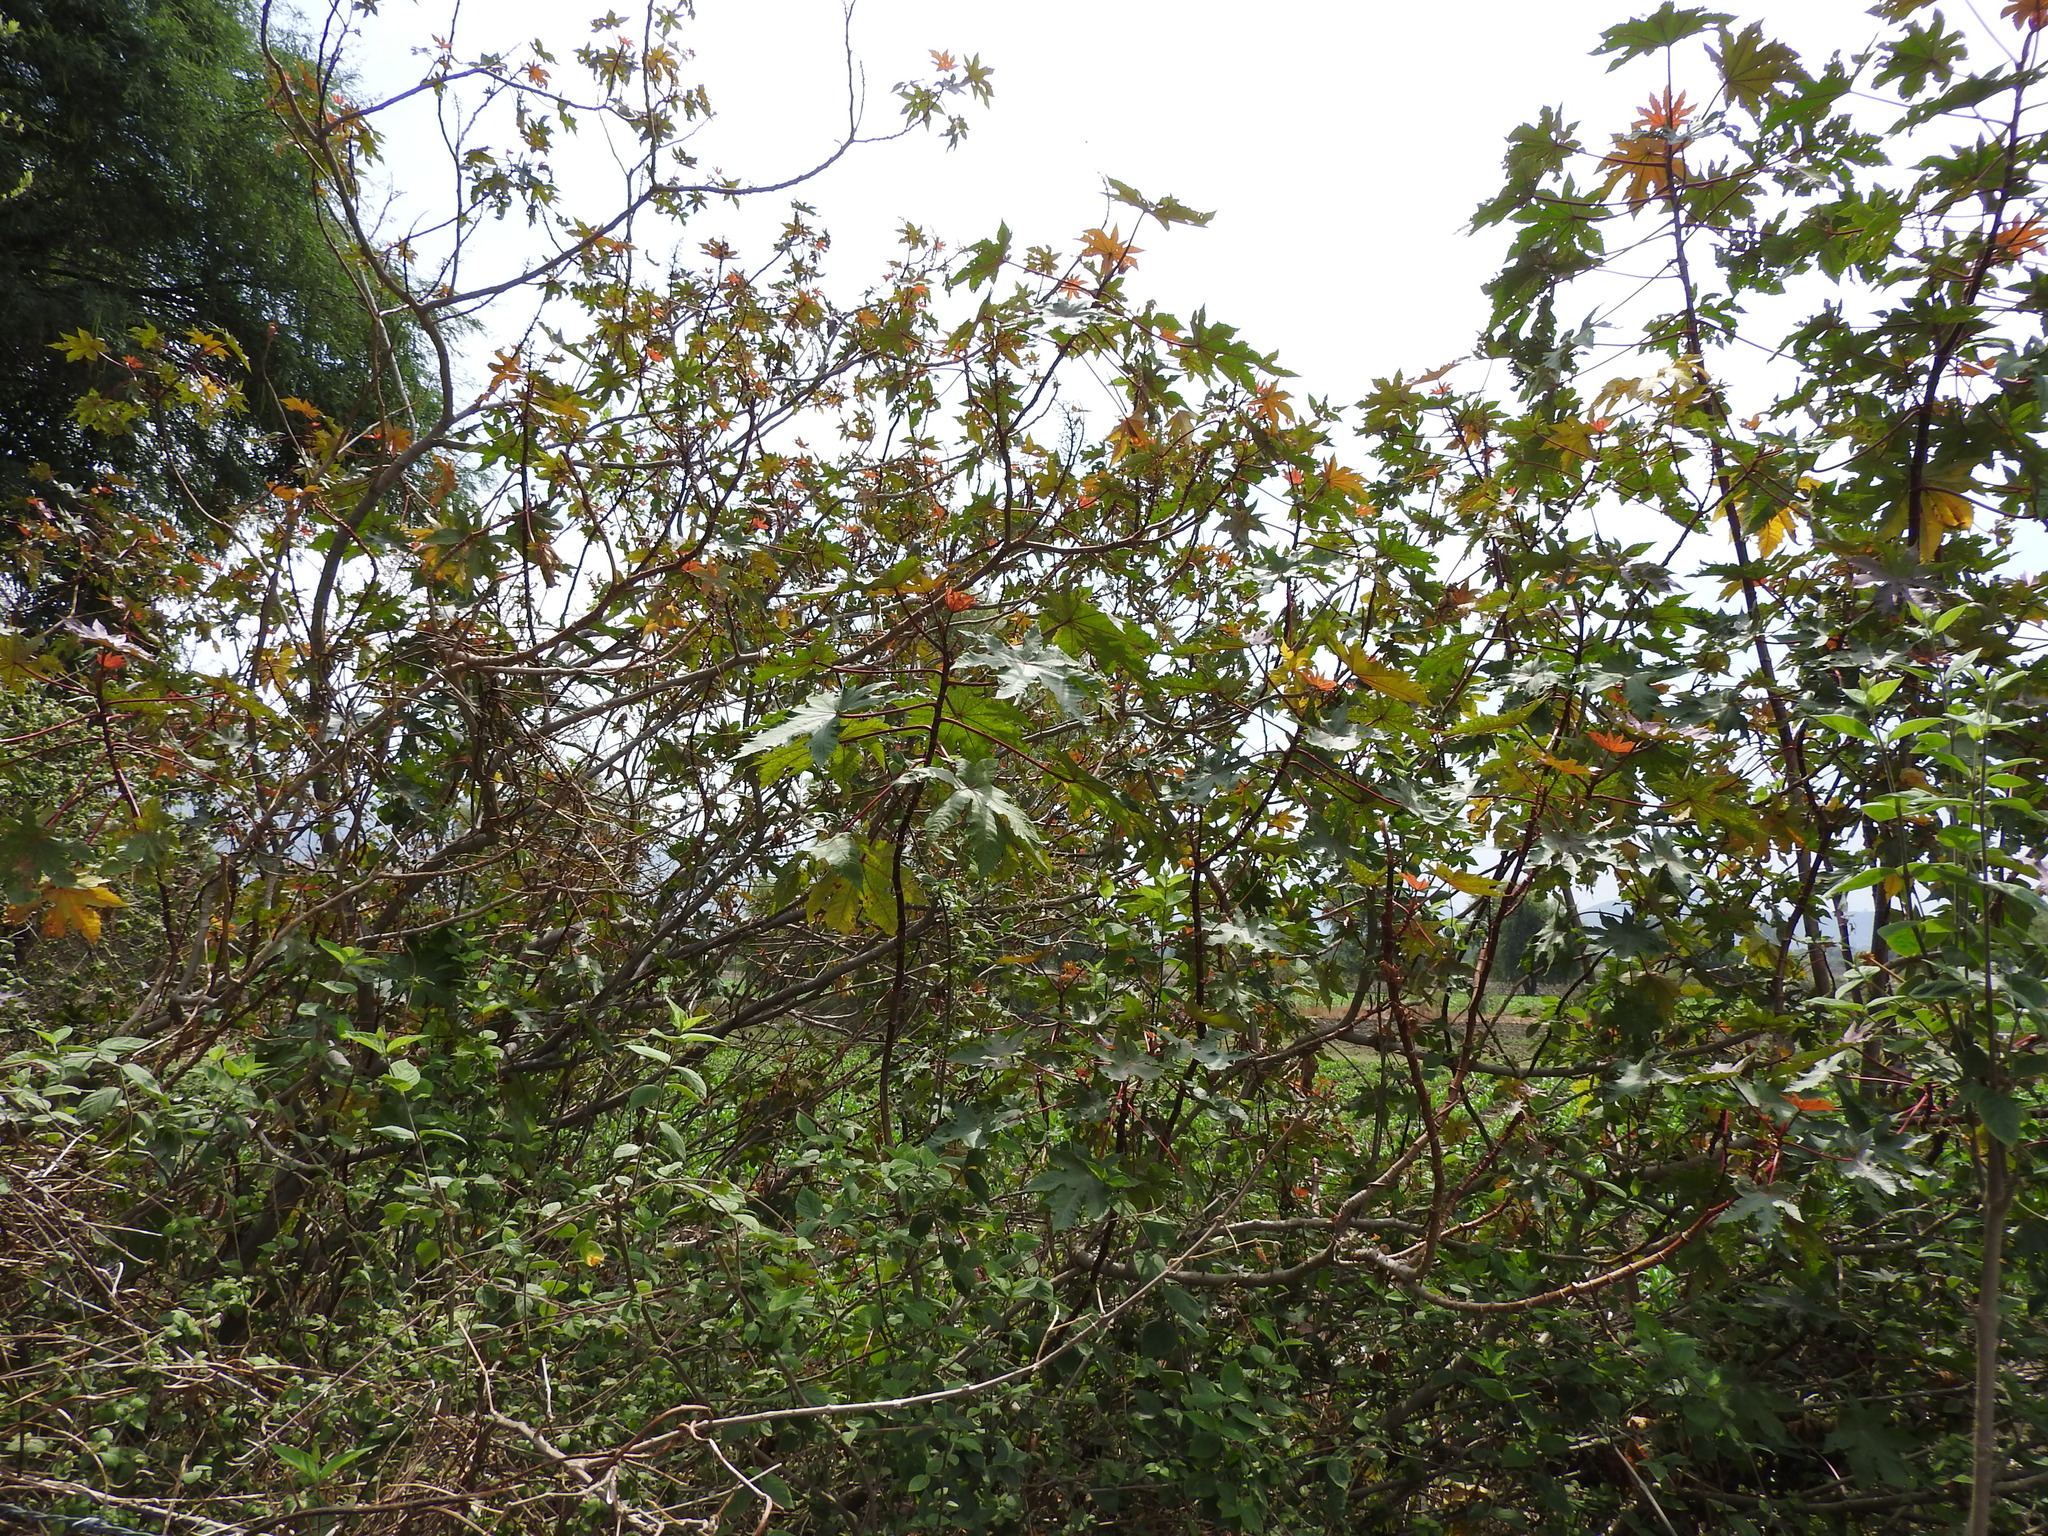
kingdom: Plantae
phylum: Tracheophyta
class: Magnoliopsida
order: Malpighiales
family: Euphorbiaceae
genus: Ricinus
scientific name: Ricinus communis
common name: Castor-oil-plant
